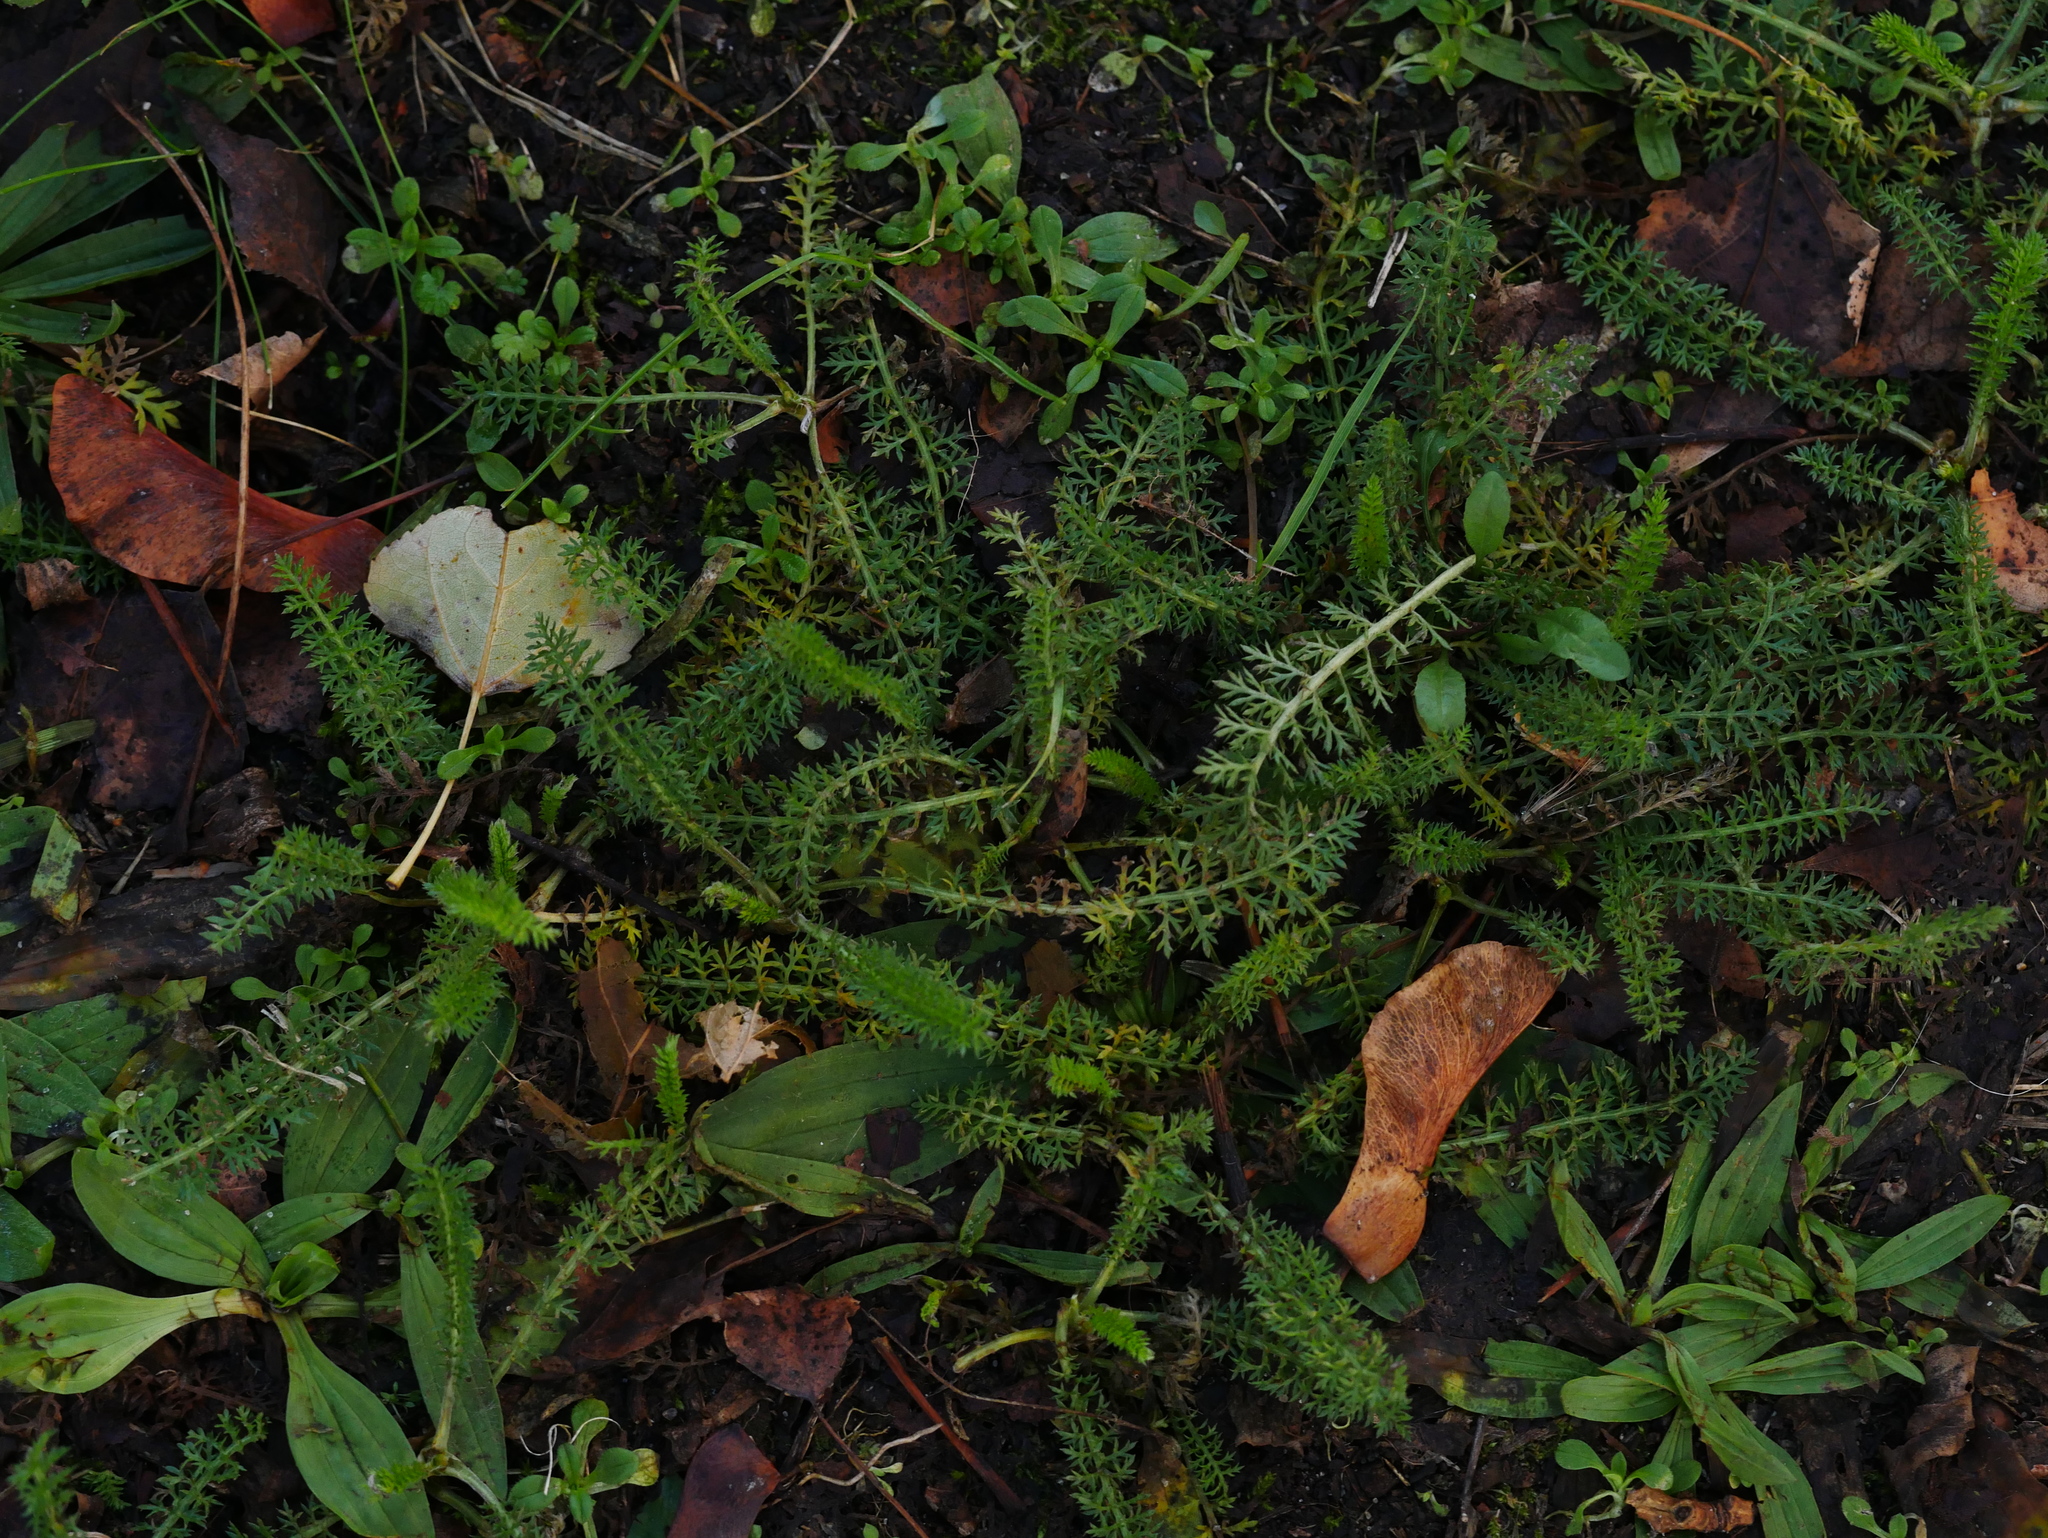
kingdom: Plantae
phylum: Tracheophyta
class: Magnoliopsida
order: Asterales
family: Asteraceae
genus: Achillea
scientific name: Achillea millefolium
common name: Yarrow
